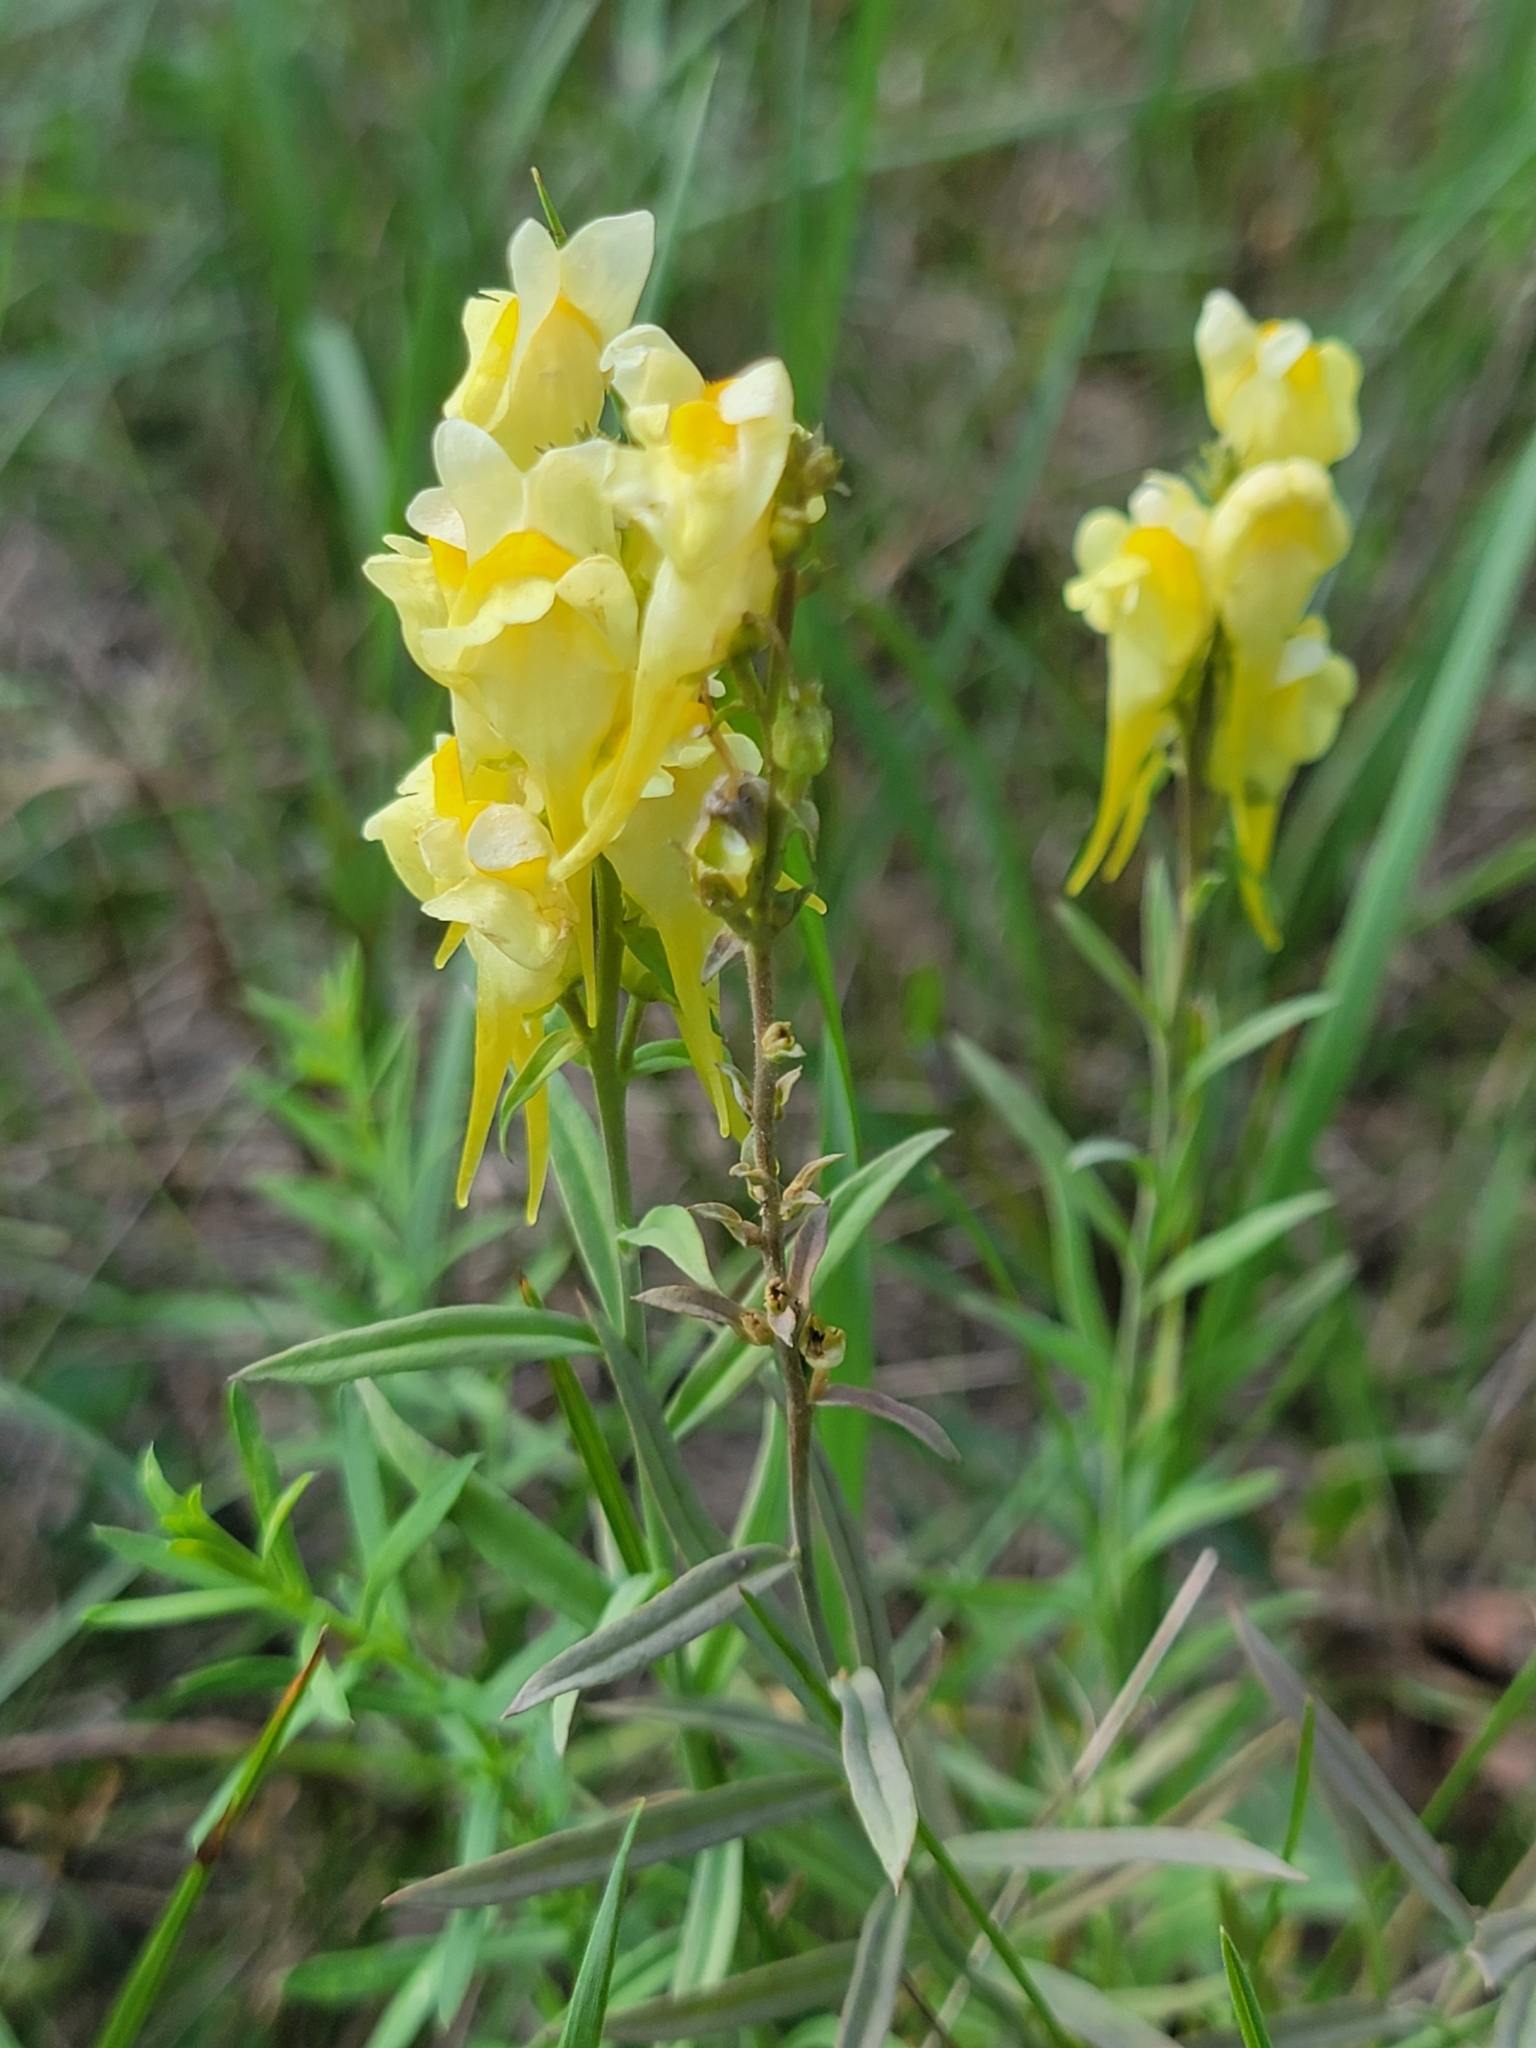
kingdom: Plantae
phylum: Tracheophyta
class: Magnoliopsida
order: Lamiales
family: Plantaginaceae
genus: Linaria
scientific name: Linaria vulgaris
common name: Butter and eggs
